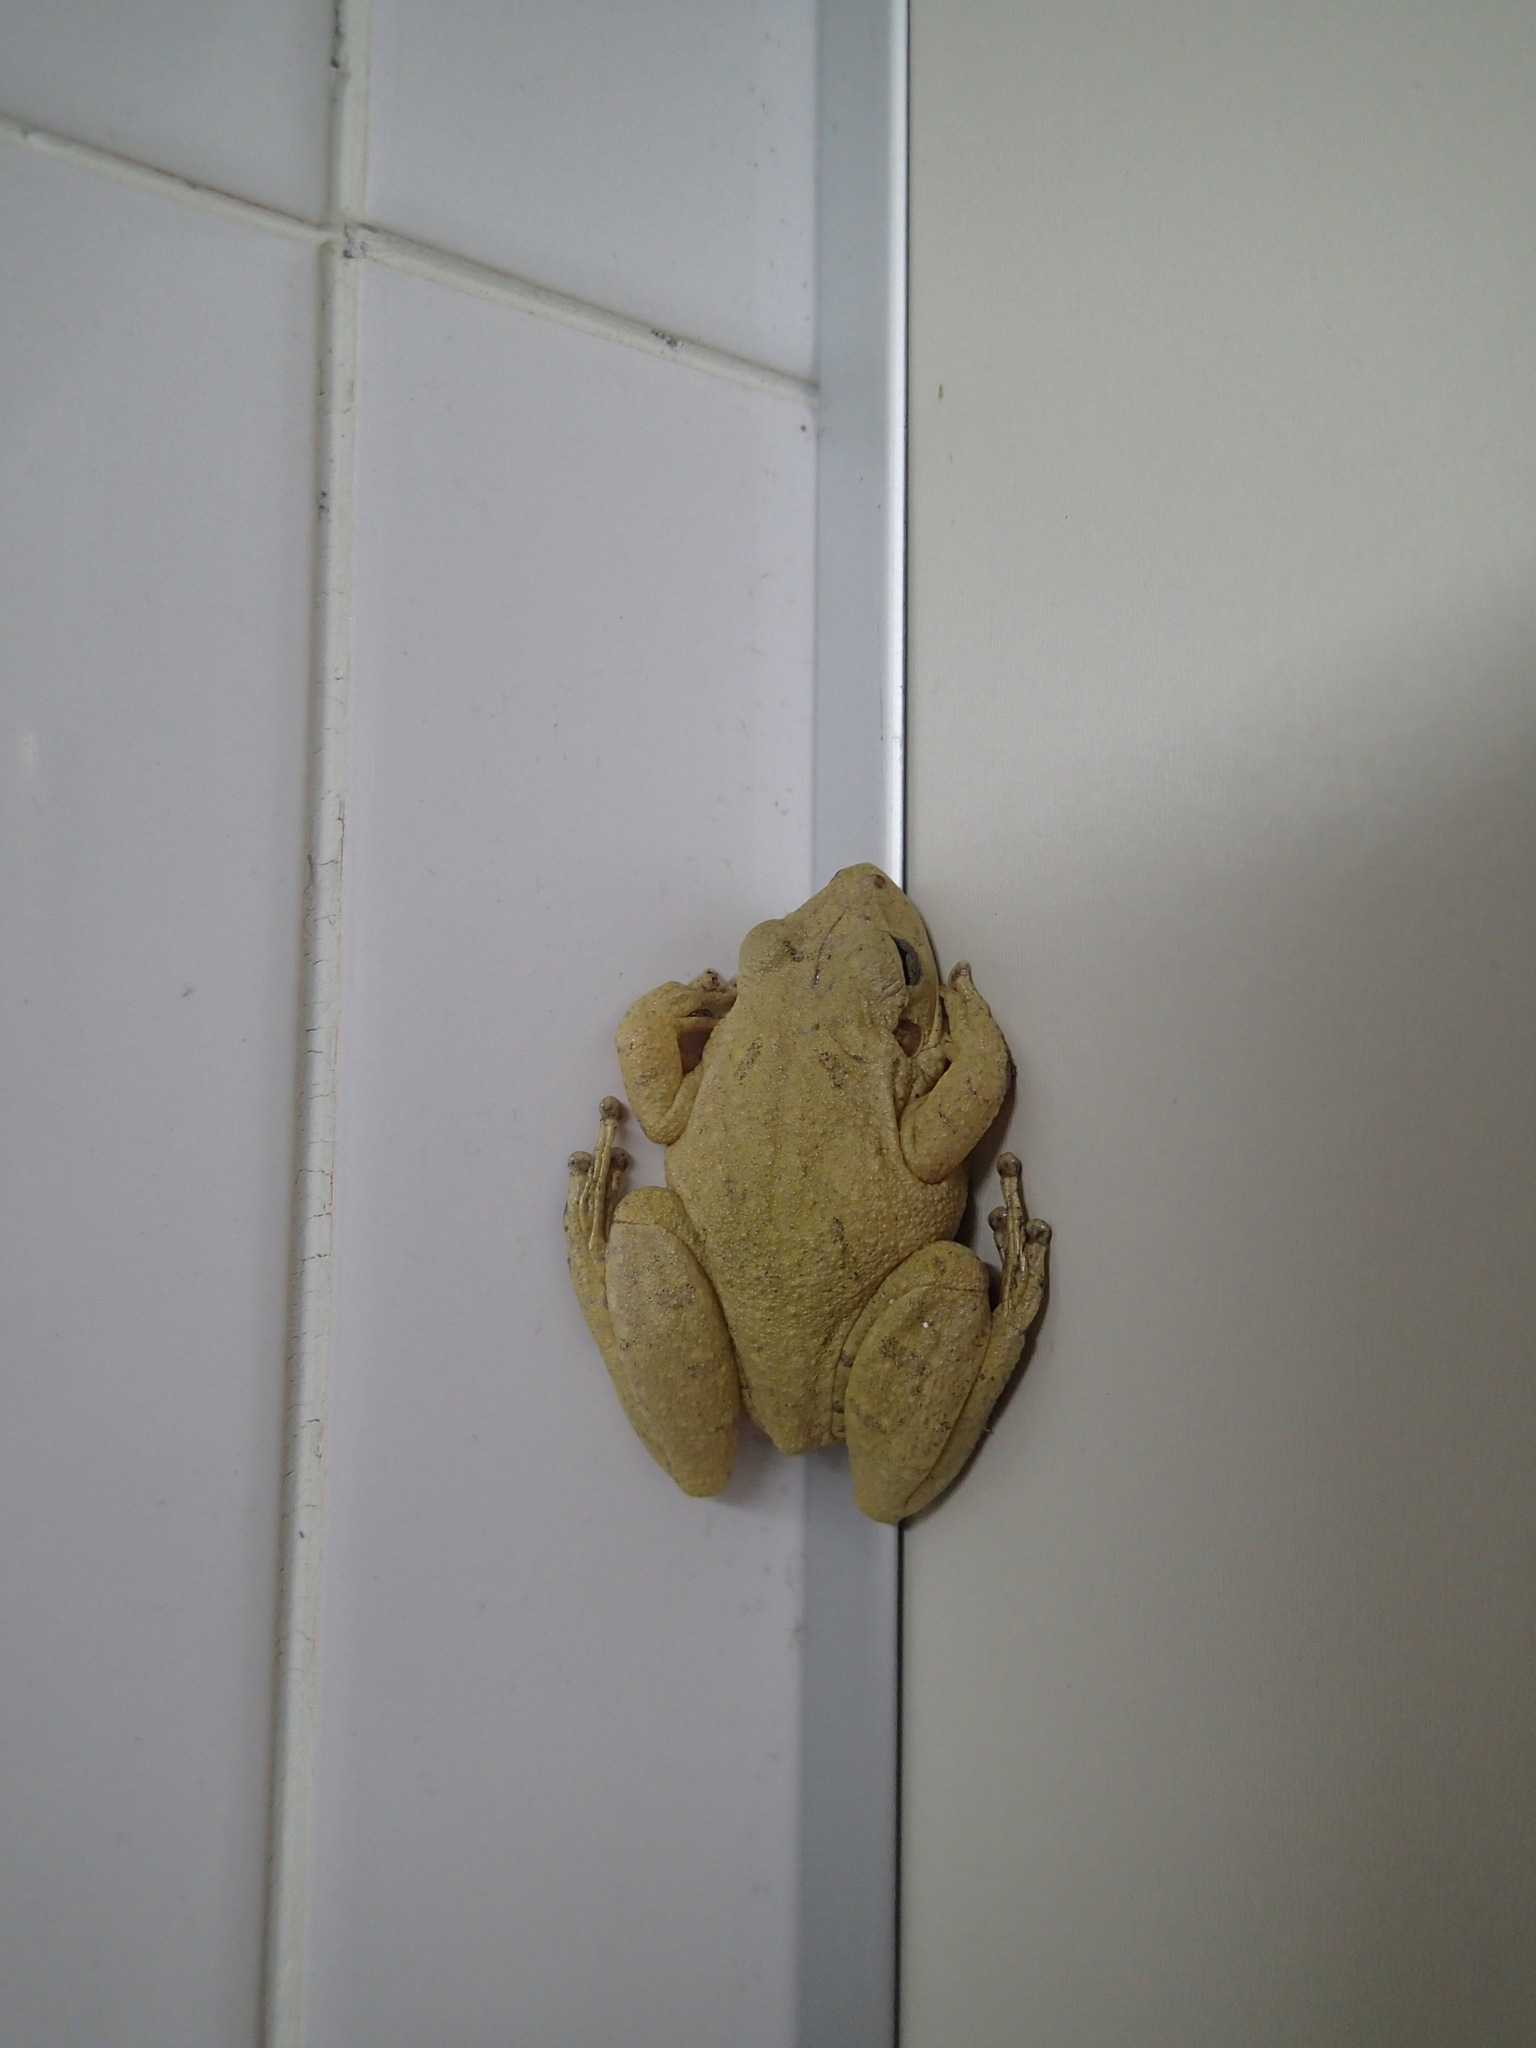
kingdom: Animalia
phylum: Chordata
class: Amphibia
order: Anura
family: Hylidae
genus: Scinax
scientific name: Scinax fuscovarius
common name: Fuscous-blotched treefrog
